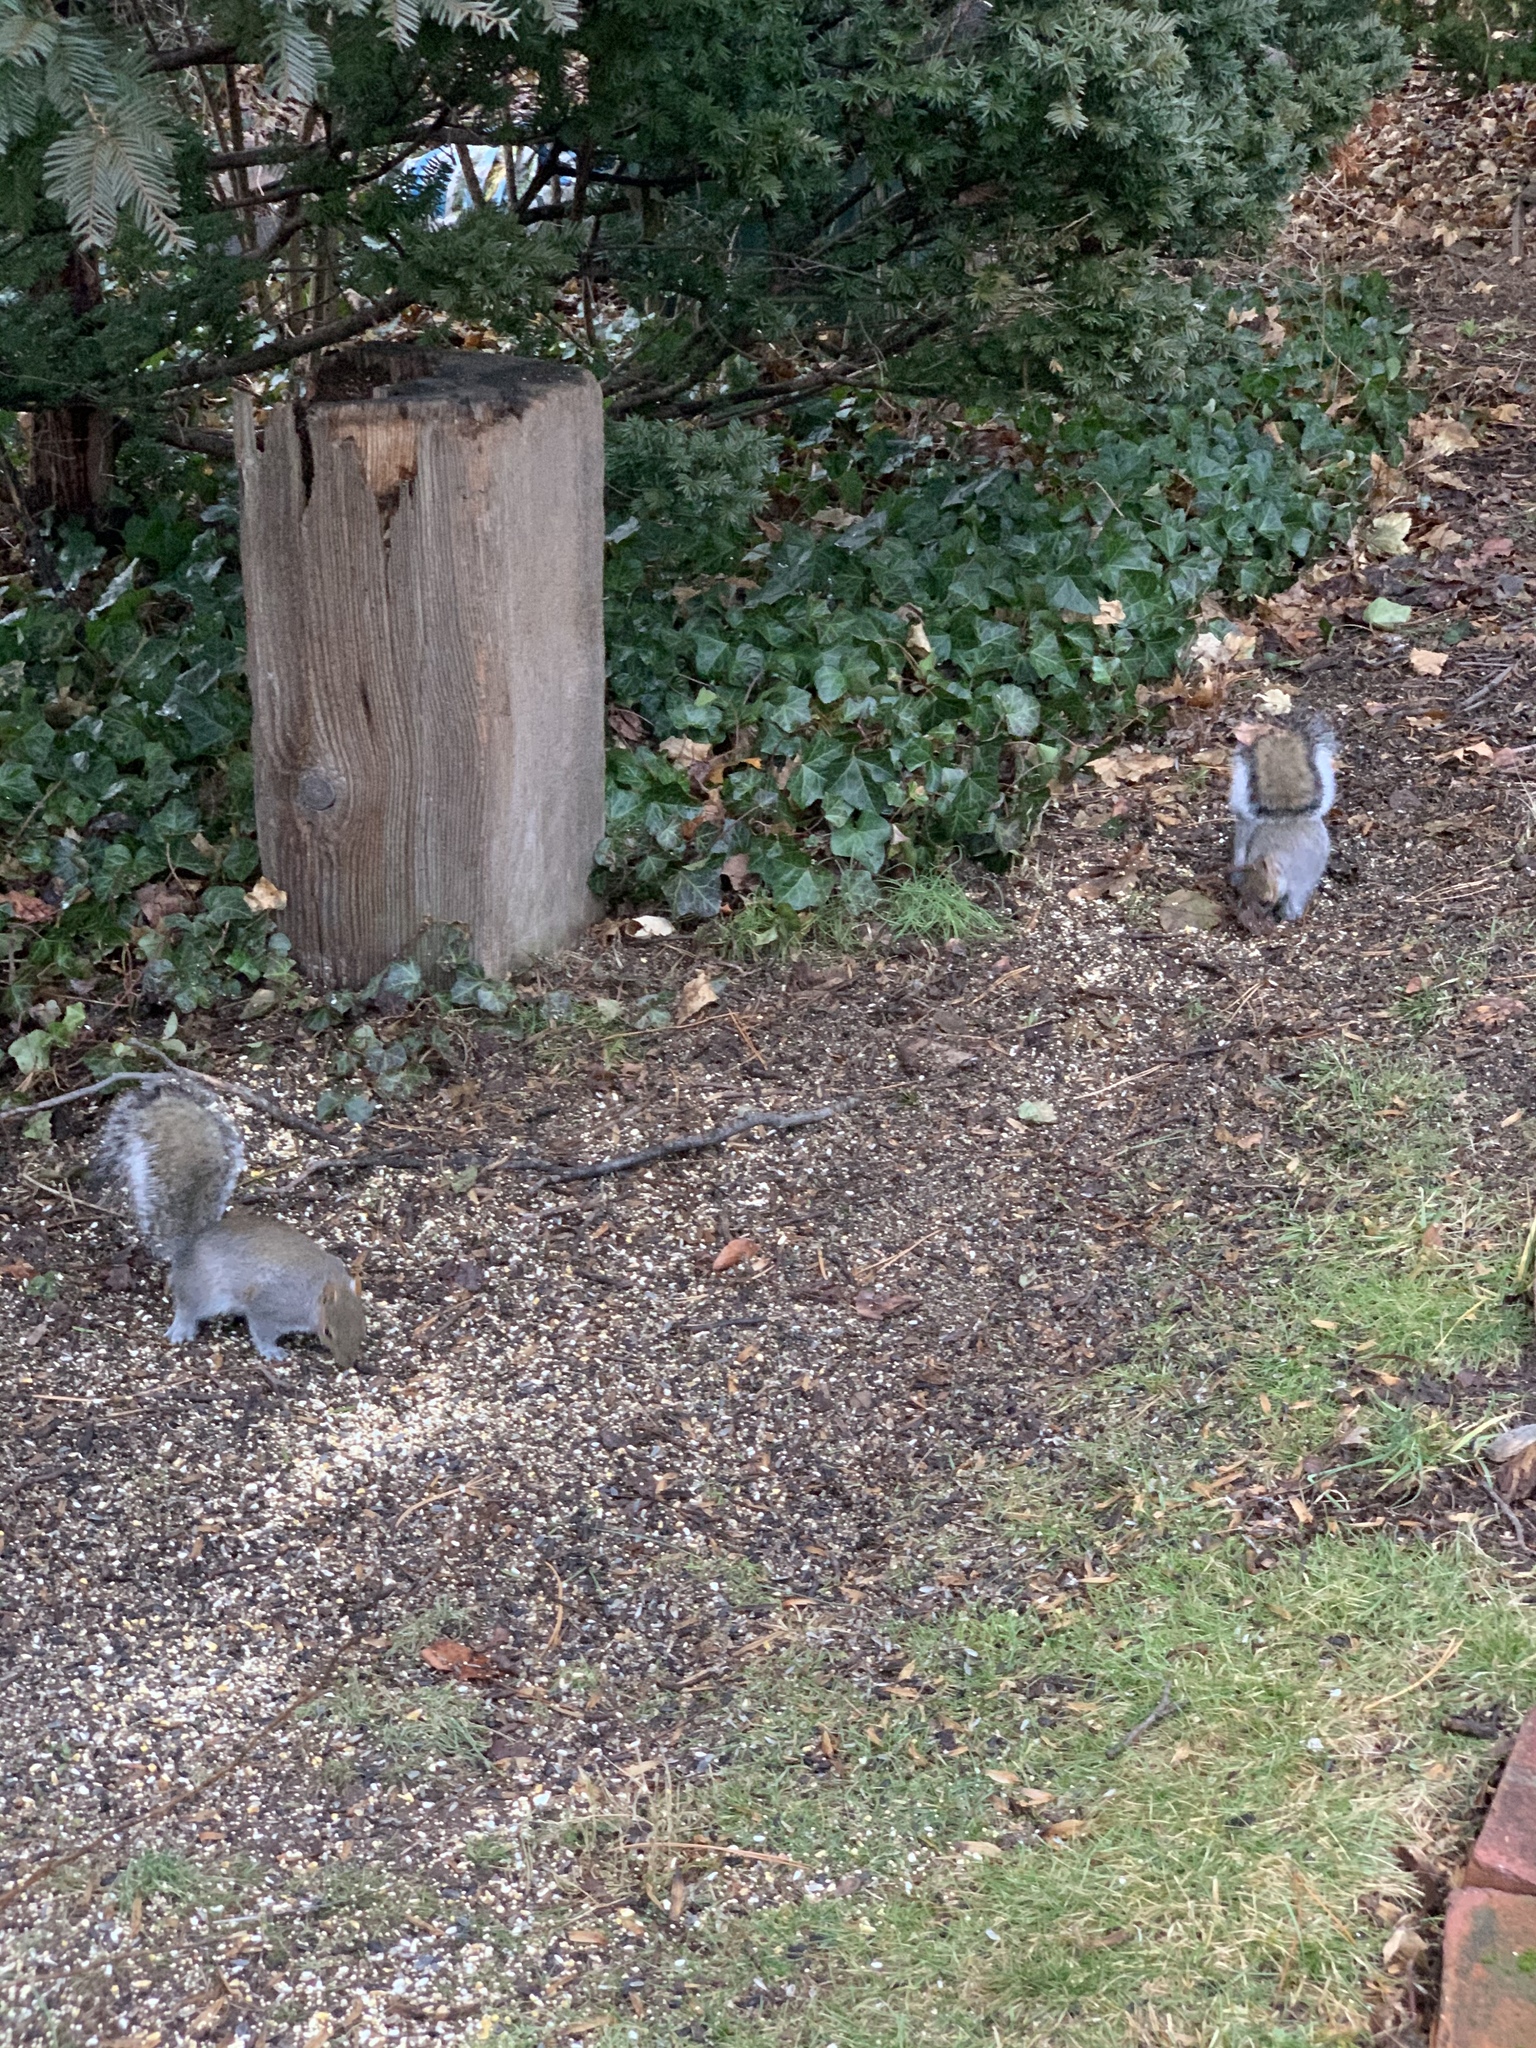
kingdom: Animalia
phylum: Chordata
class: Mammalia
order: Rodentia
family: Sciuridae
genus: Sciurus
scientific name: Sciurus carolinensis
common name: Eastern gray squirrel
